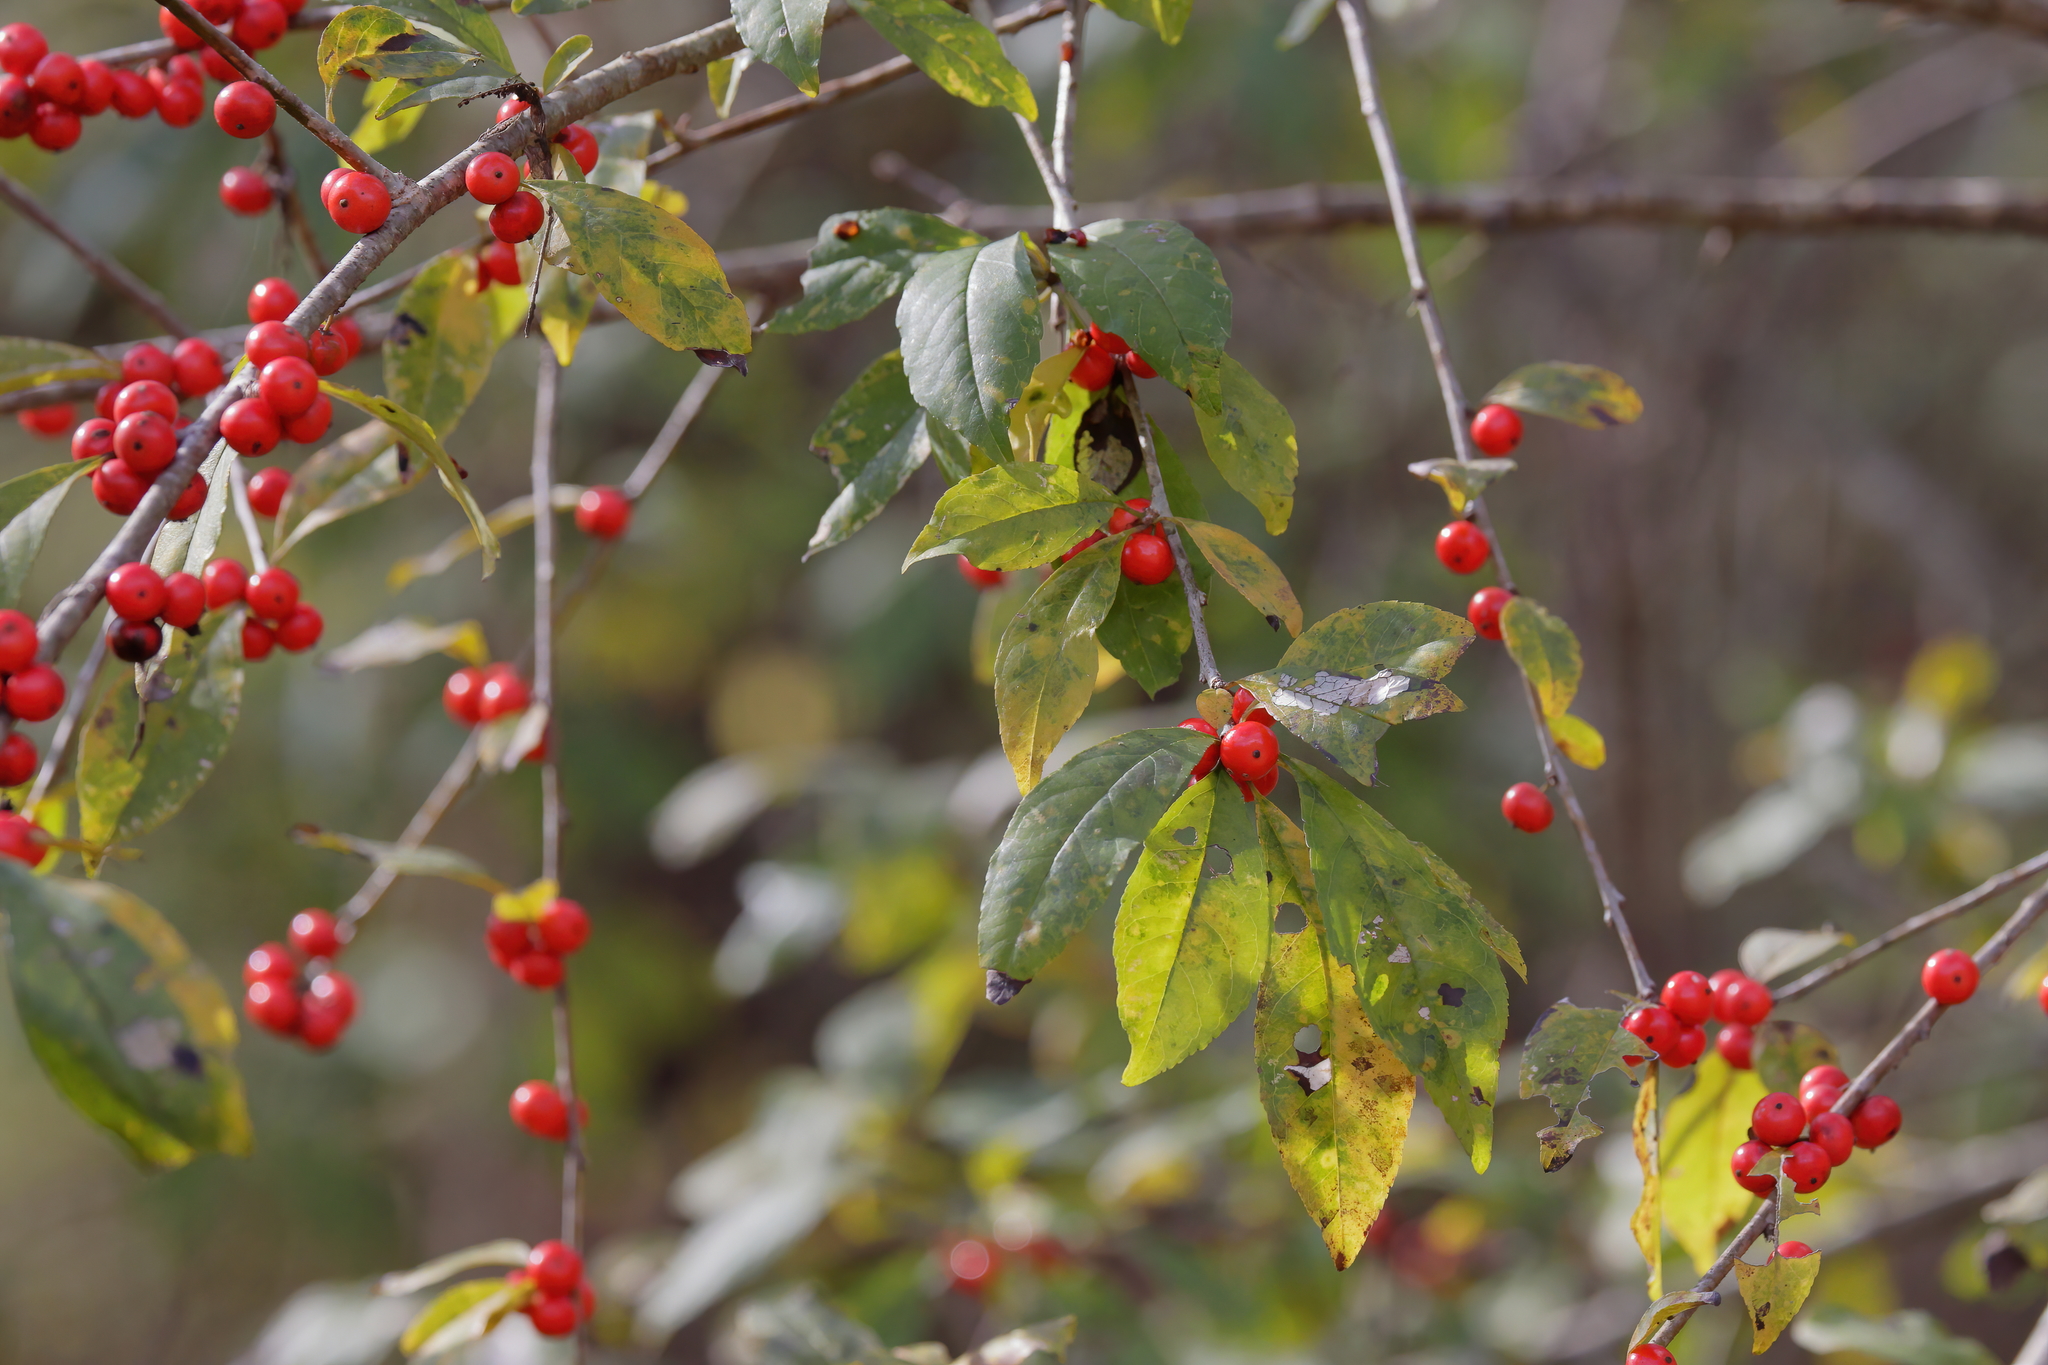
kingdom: Plantae
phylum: Tracheophyta
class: Magnoliopsida
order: Aquifoliales
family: Aquifoliaceae
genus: Ilex
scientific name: Ilex decidua
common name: Possum-haw
